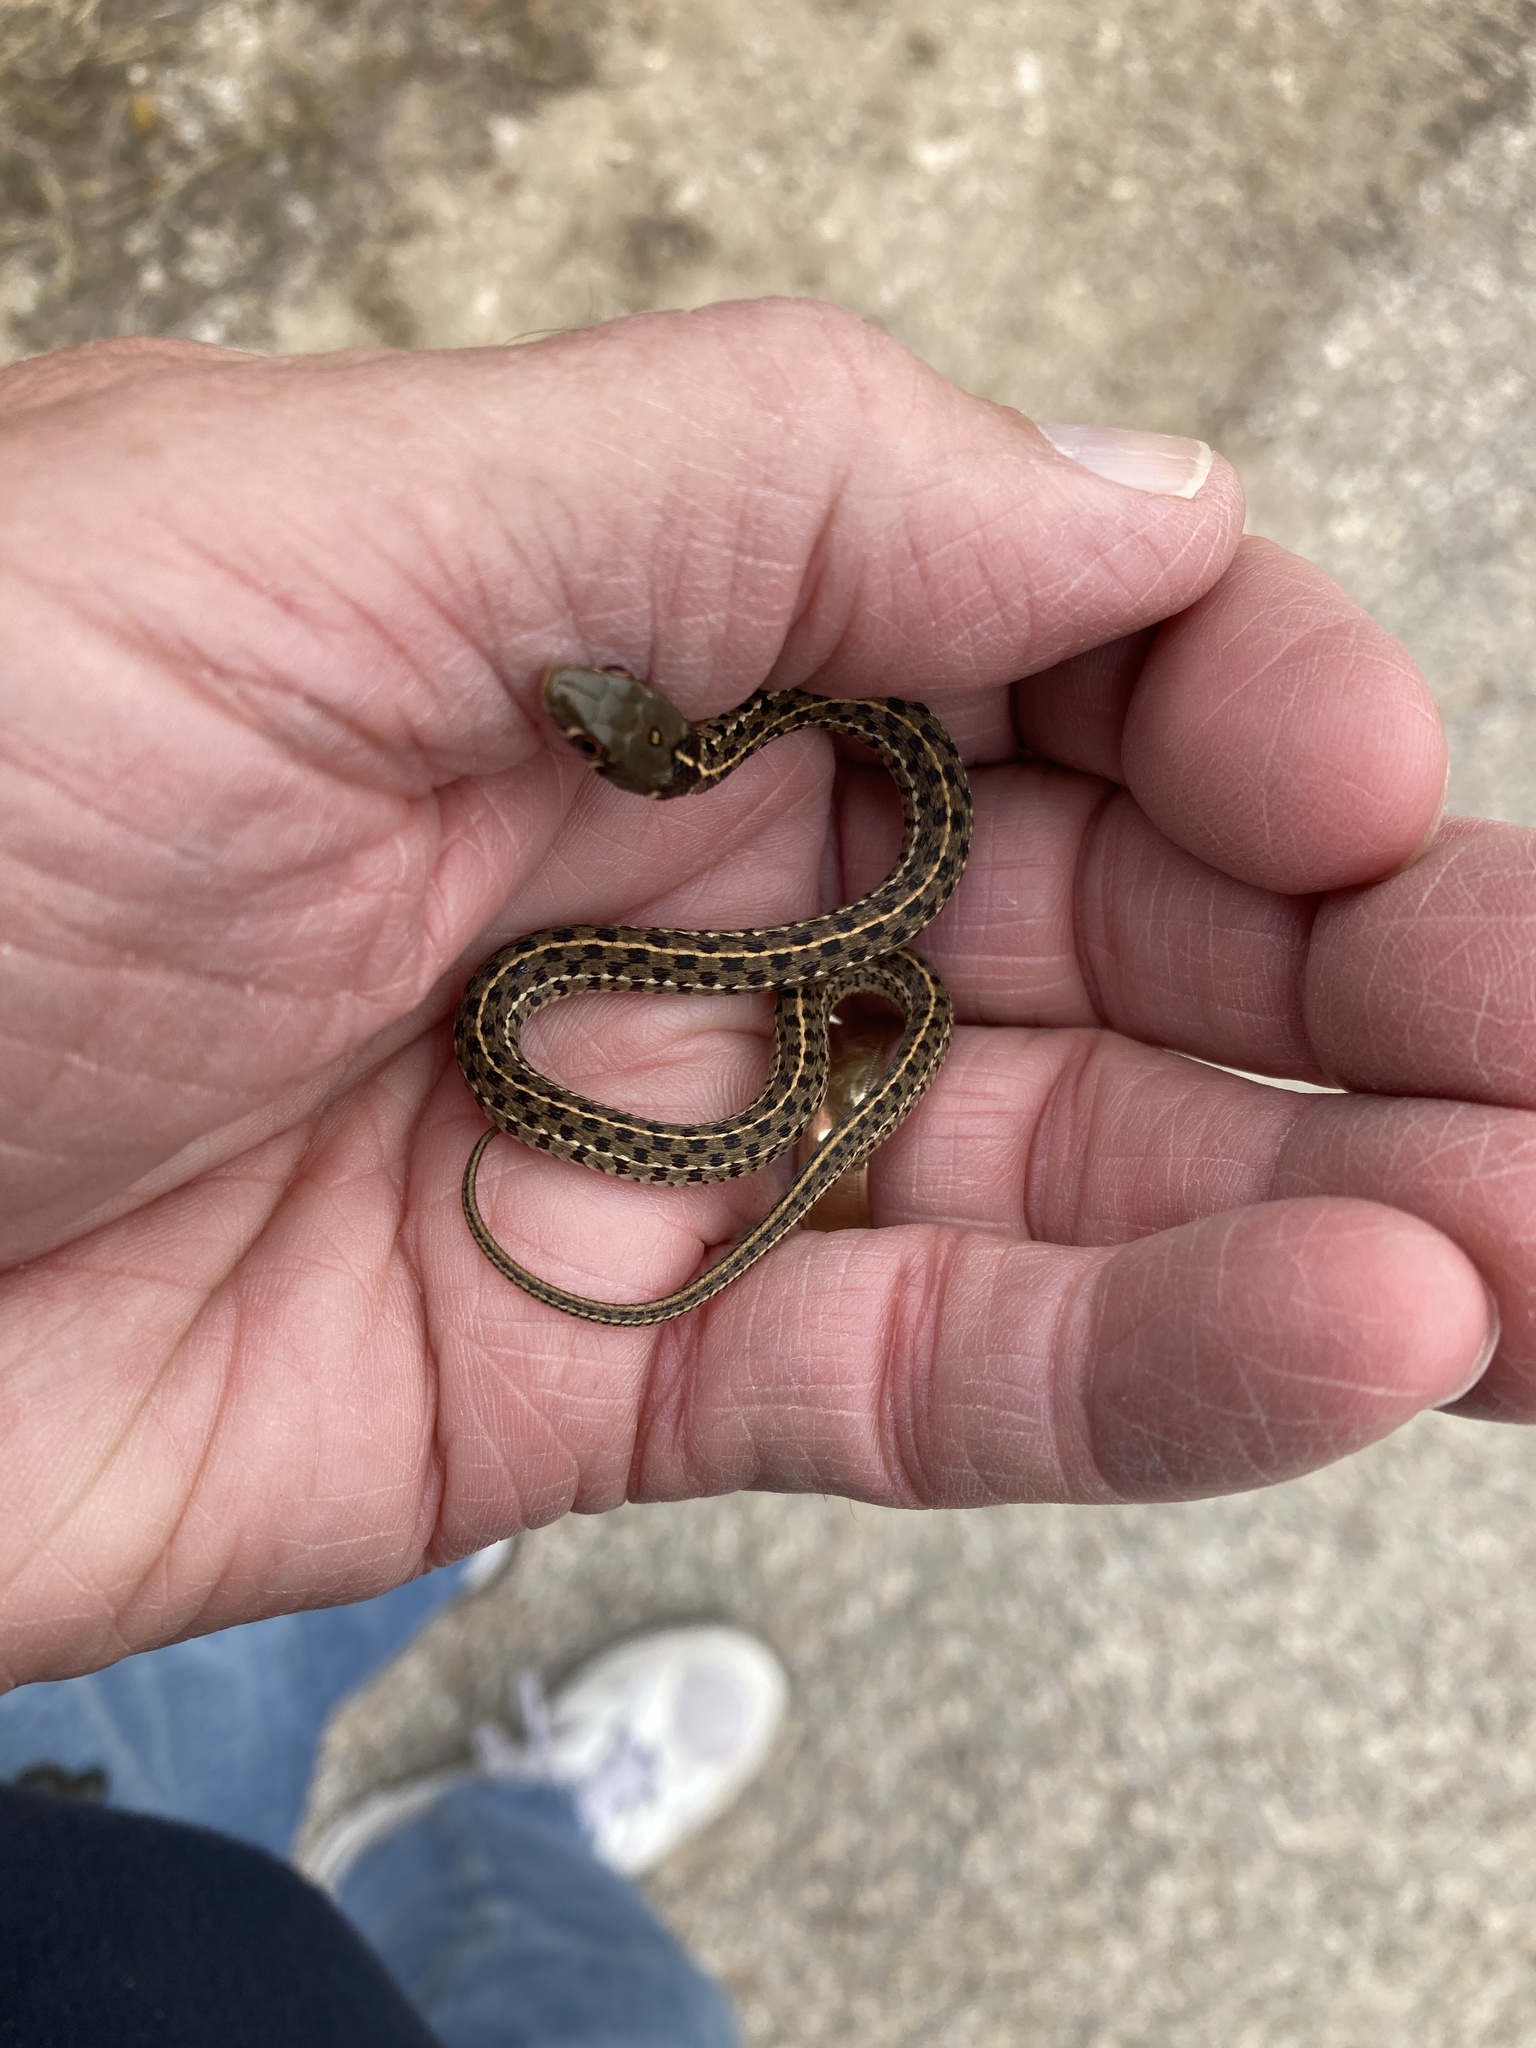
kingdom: Animalia
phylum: Chordata
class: Squamata
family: Colubridae
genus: Thamnophis
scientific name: Thamnophis marcianus
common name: Checkered garter snake
